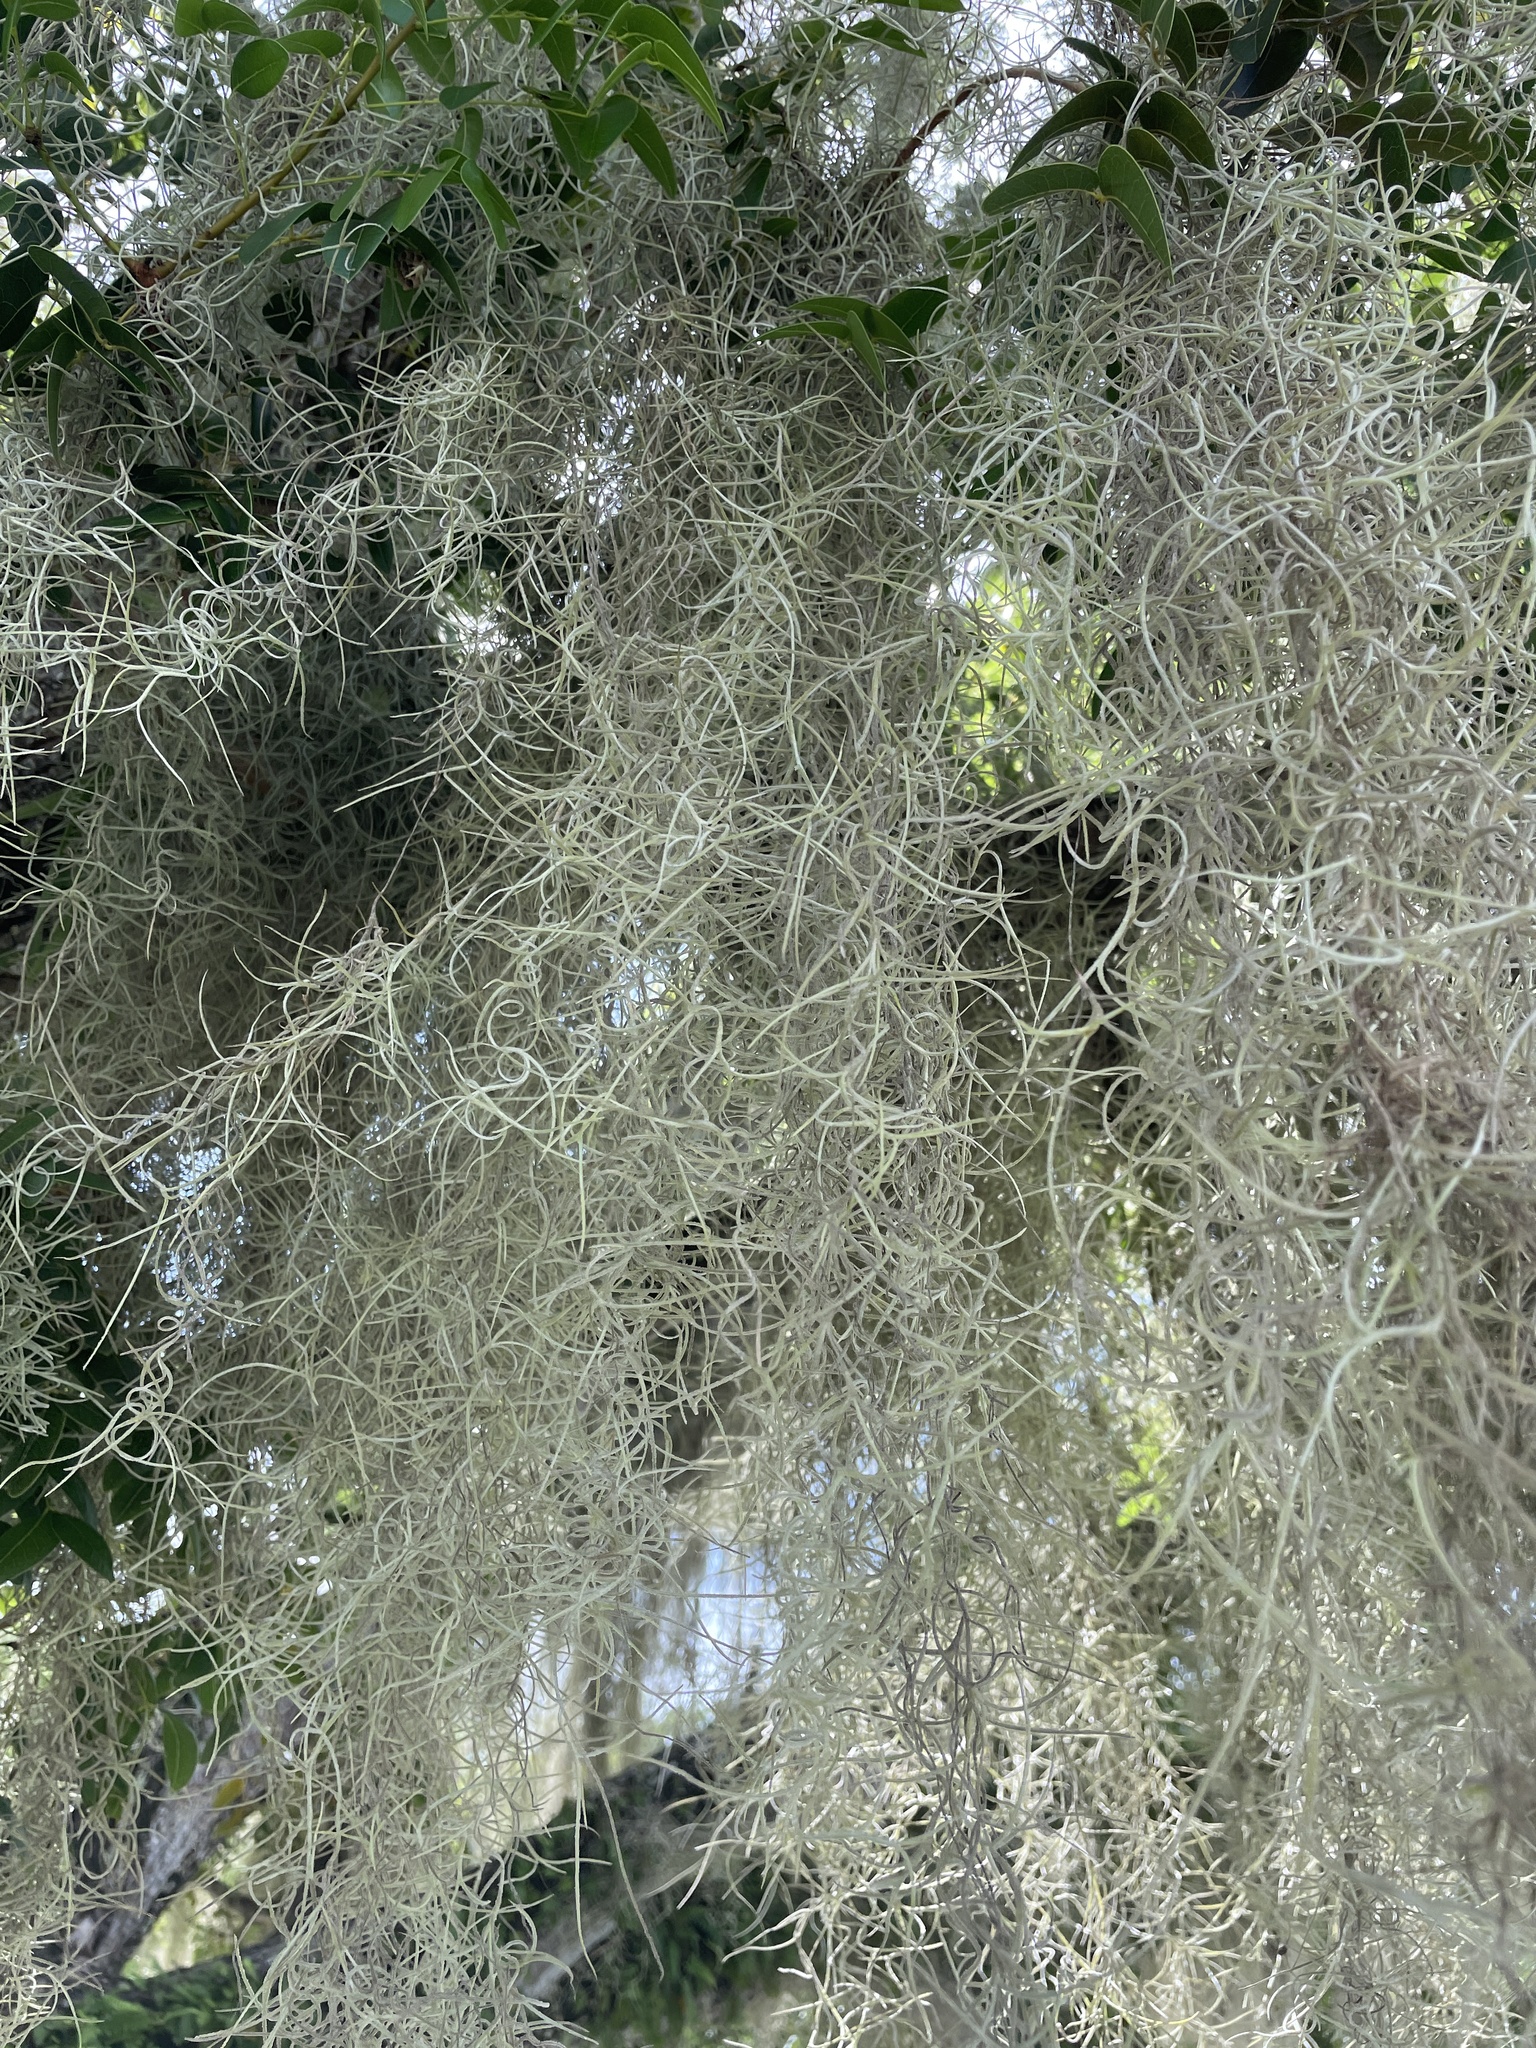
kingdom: Plantae
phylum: Tracheophyta
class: Liliopsida
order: Poales
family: Bromeliaceae
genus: Tillandsia
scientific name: Tillandsia usneoides
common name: Spanish moss
